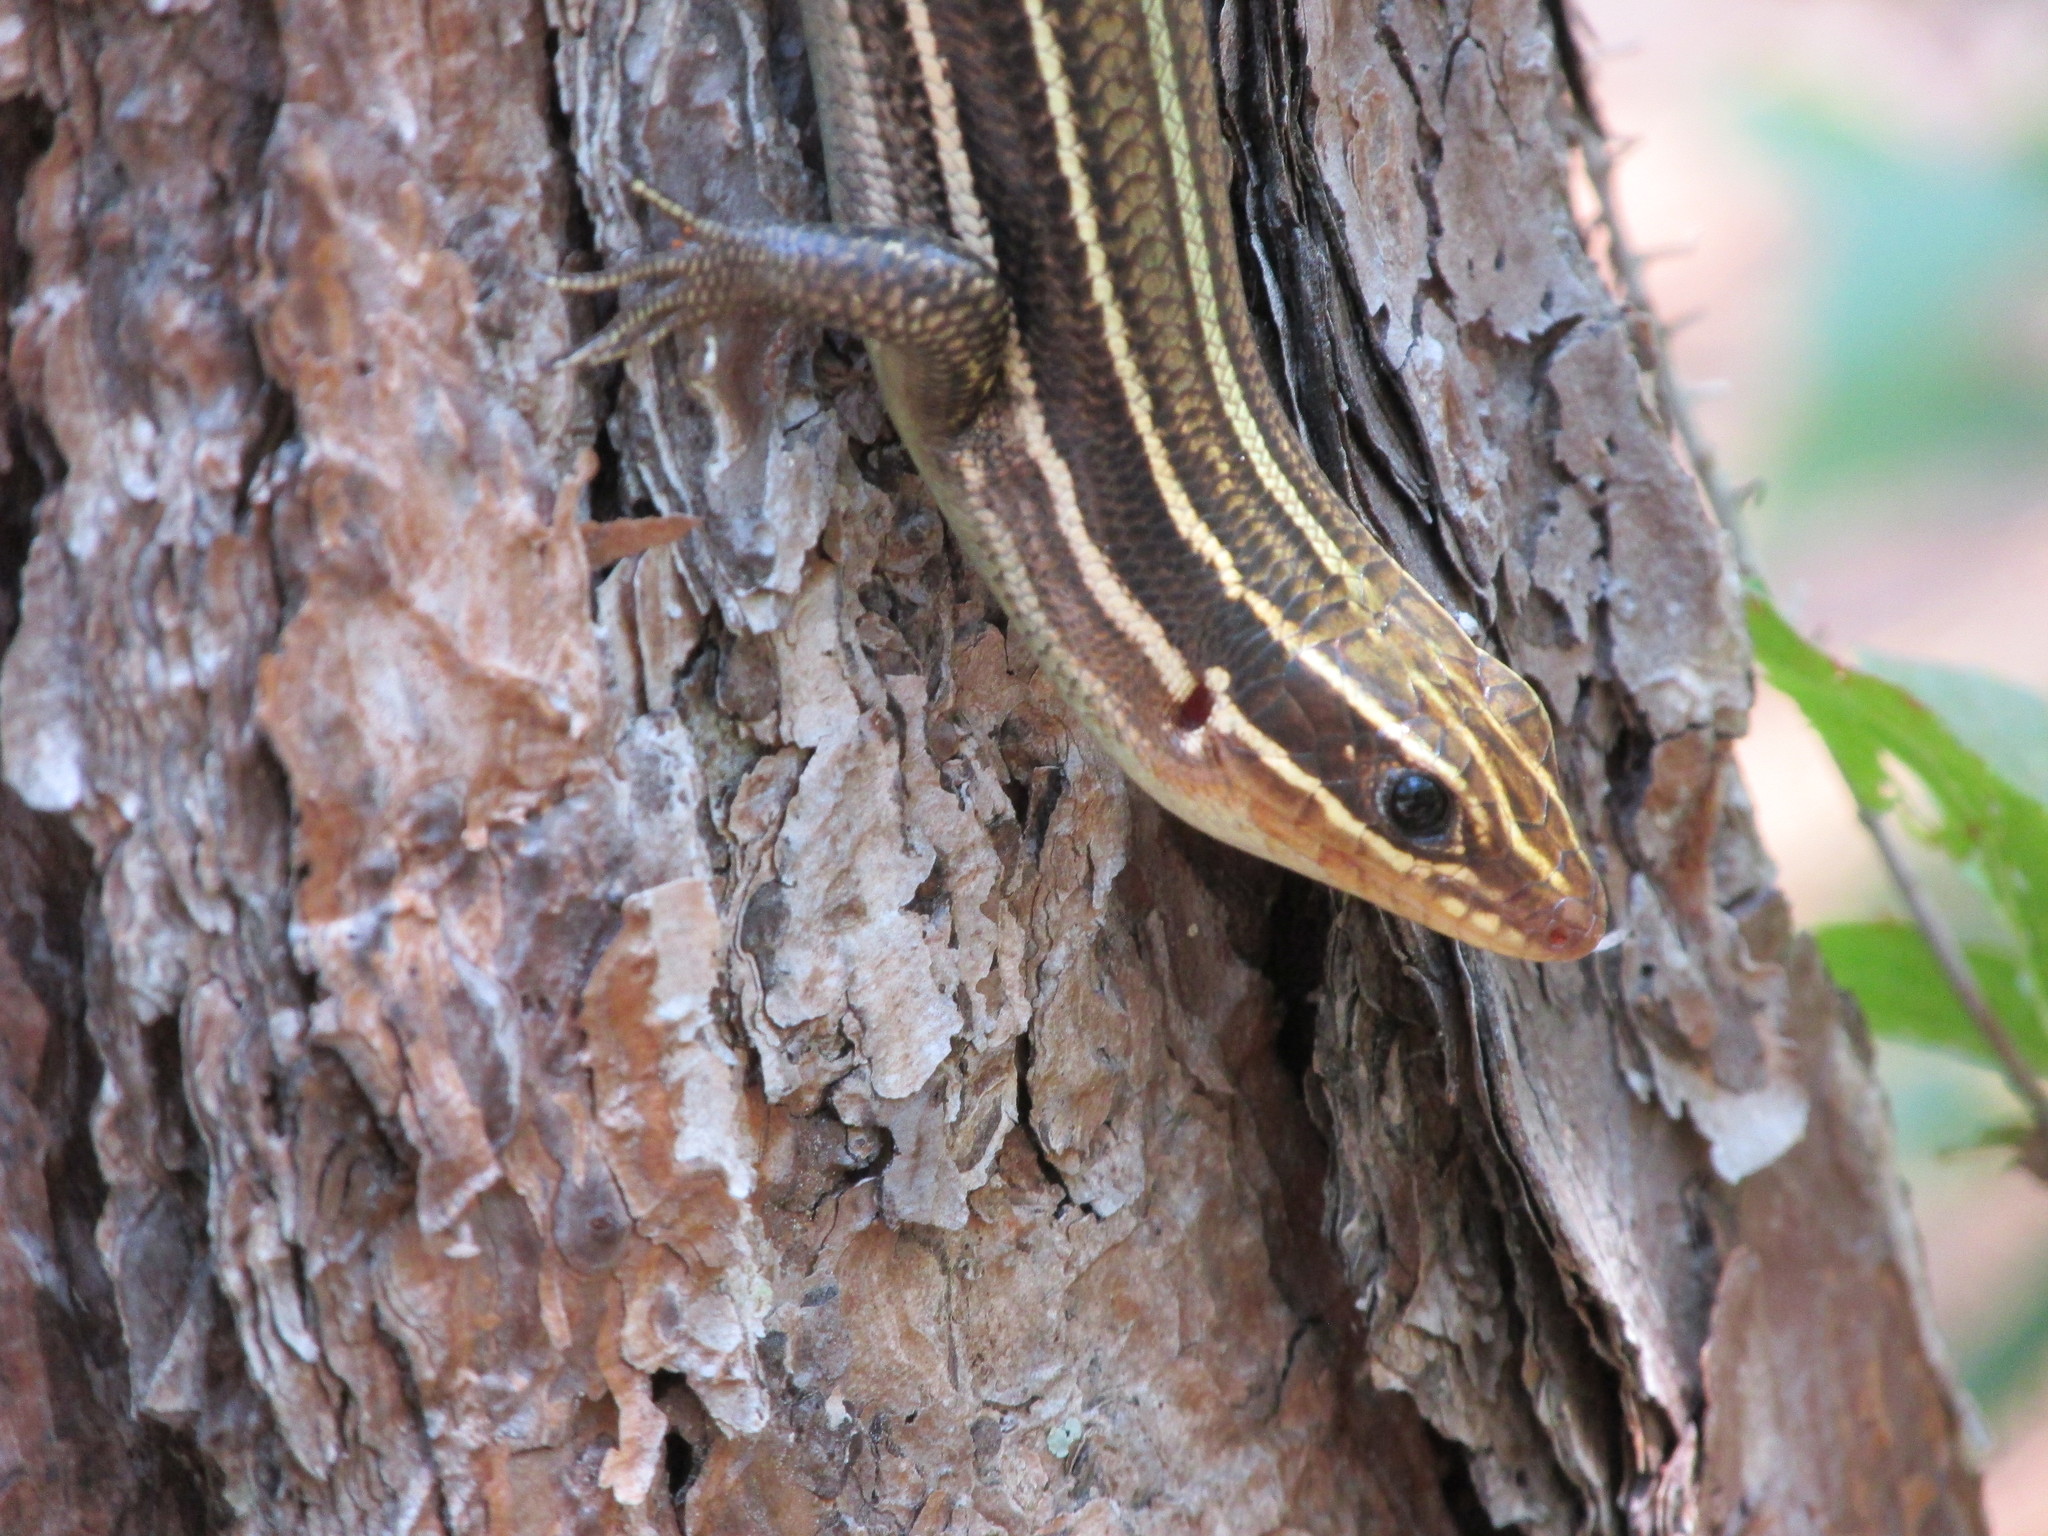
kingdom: Animalia
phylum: Chordata
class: Squamata
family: Scincidae
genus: Plestiodon
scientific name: Plestiodon laticeps
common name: Broadhead skink
